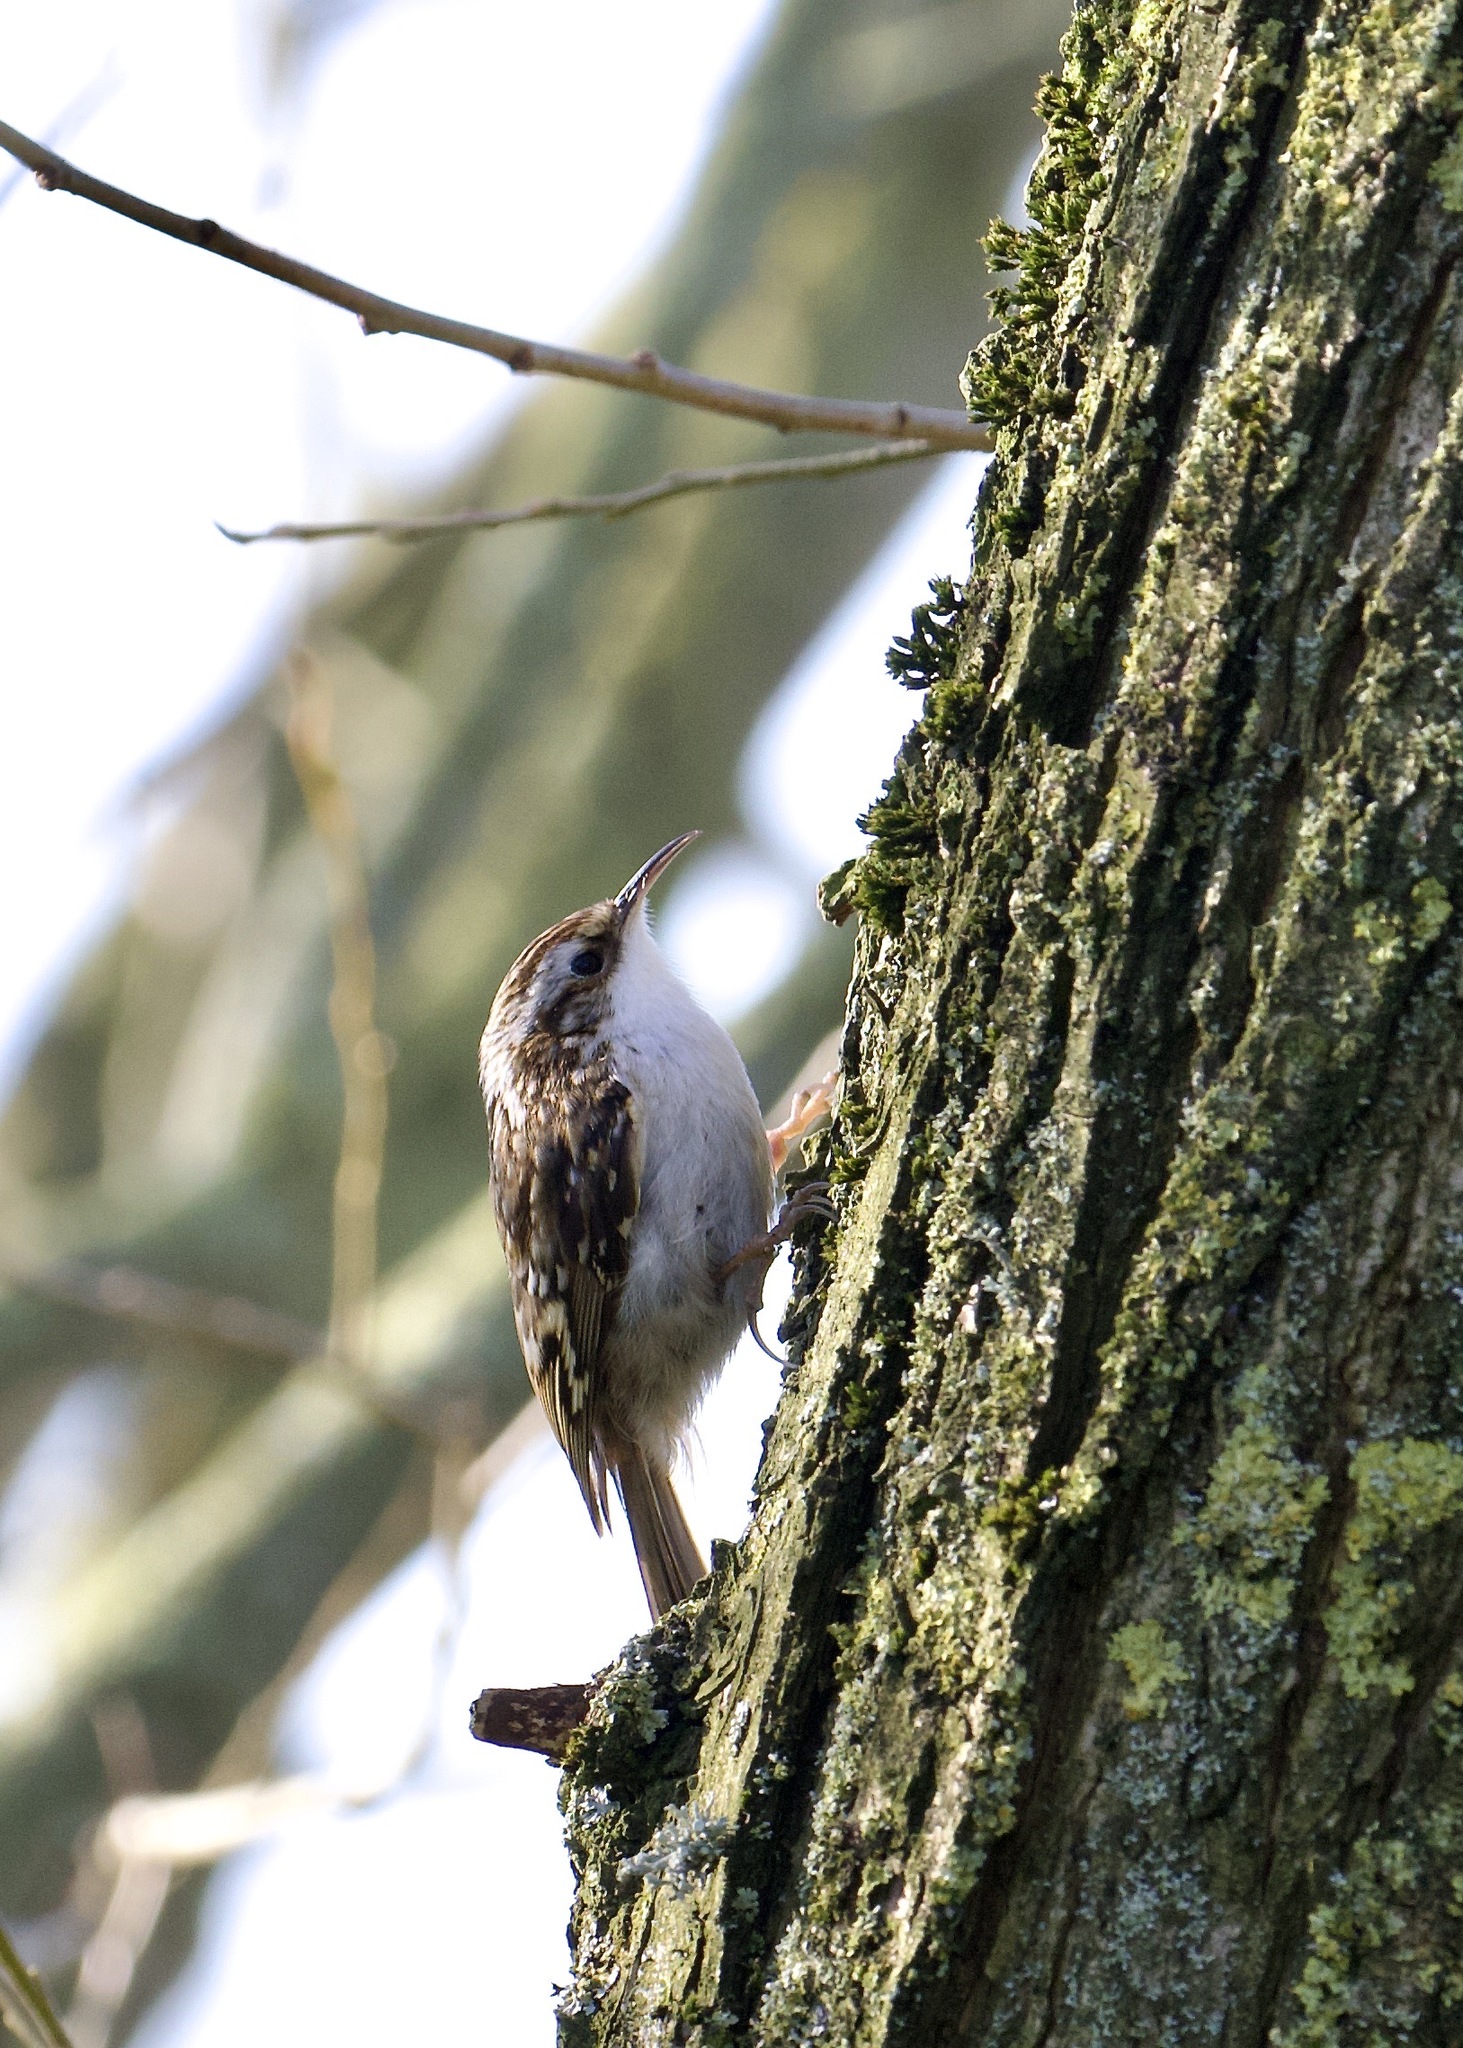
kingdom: Animalia
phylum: Chordata
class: Aves
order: Passeriformes
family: Certhiidae
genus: Certhia
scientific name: Certhia familiaris
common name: Eurasian treecreeper
